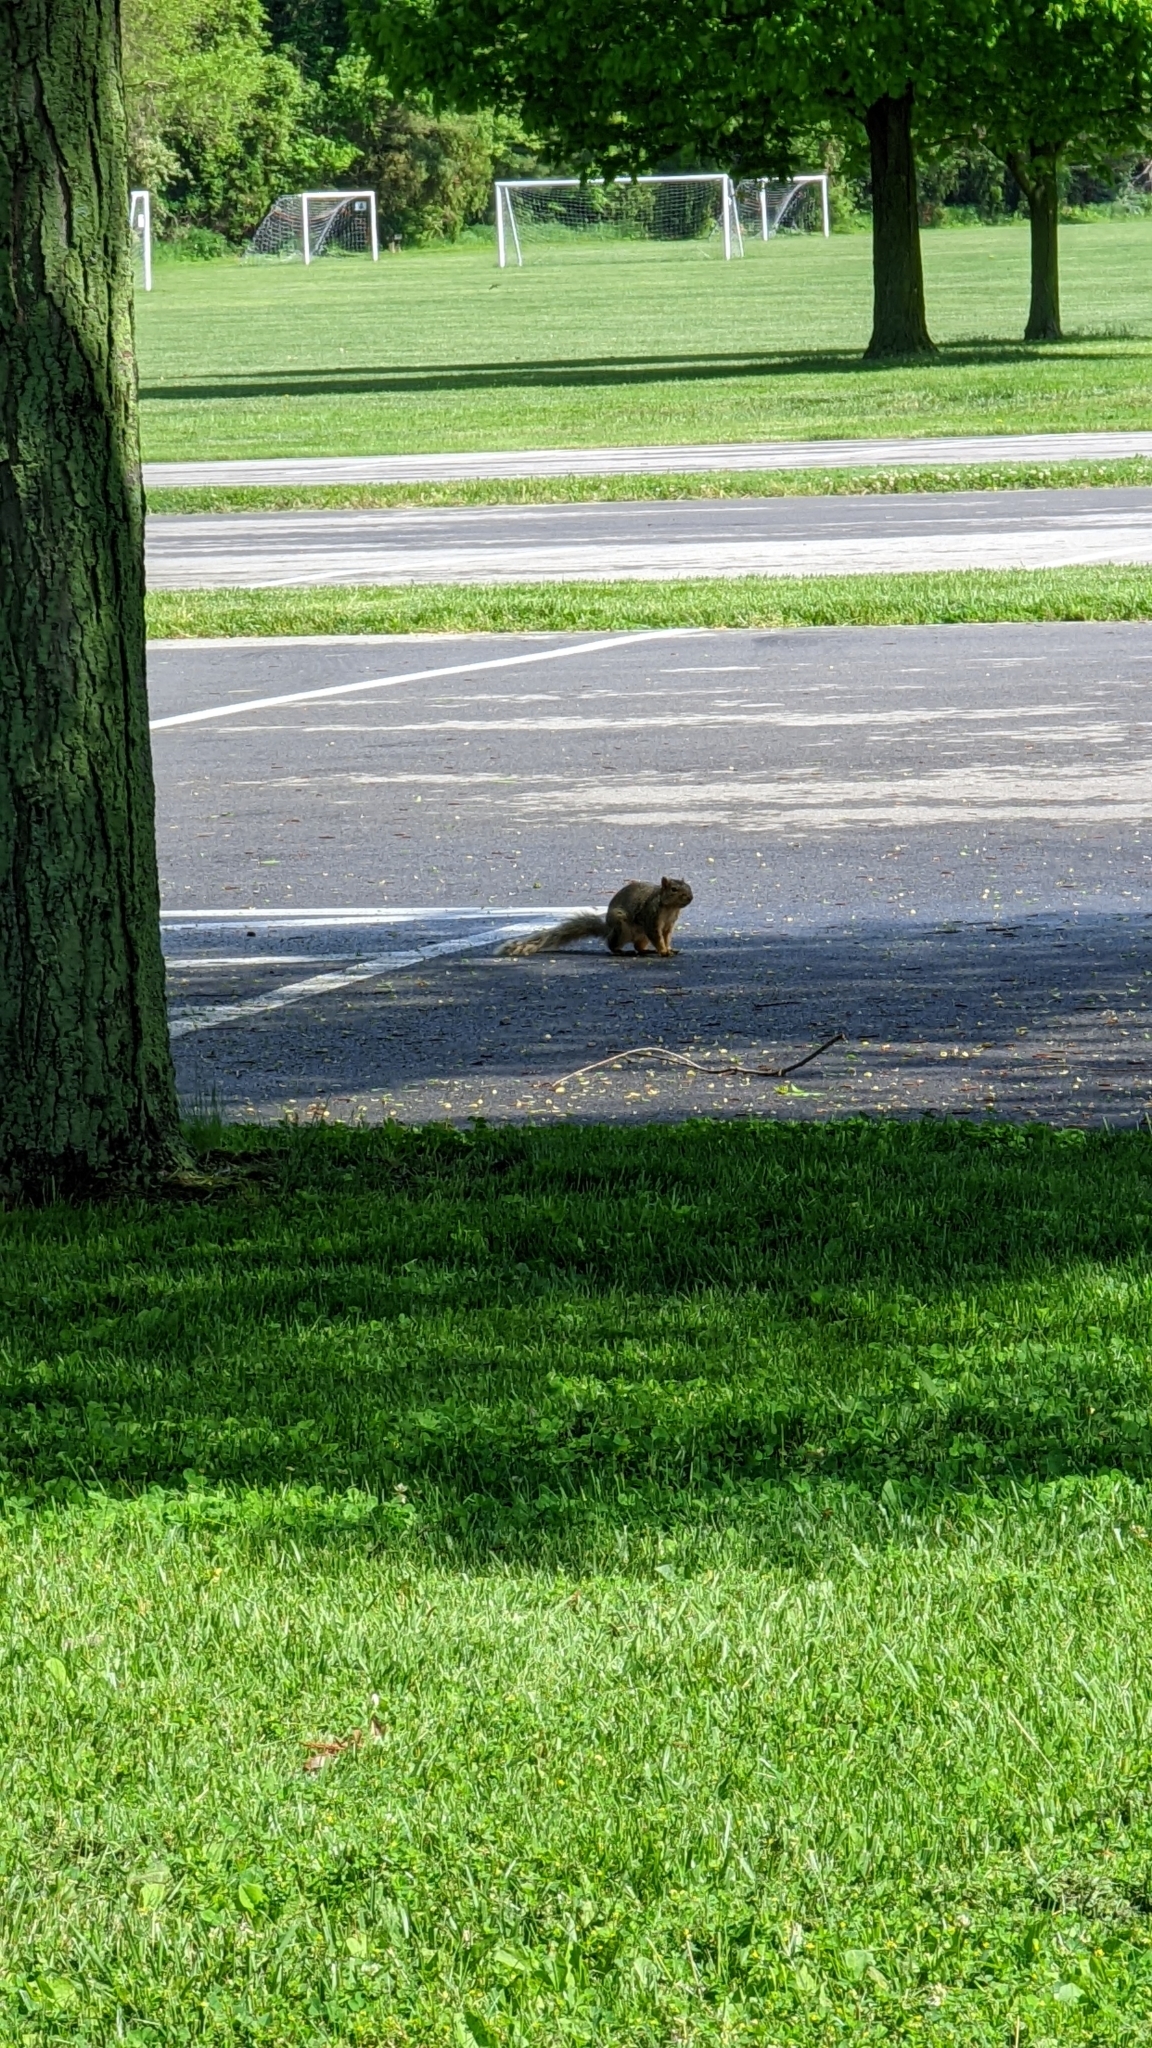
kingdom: Animalia
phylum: Chordata
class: Mammalia
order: Rodentia
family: Sciuridae
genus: Sciurus
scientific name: Sciurus niger
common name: Fox squirrel
